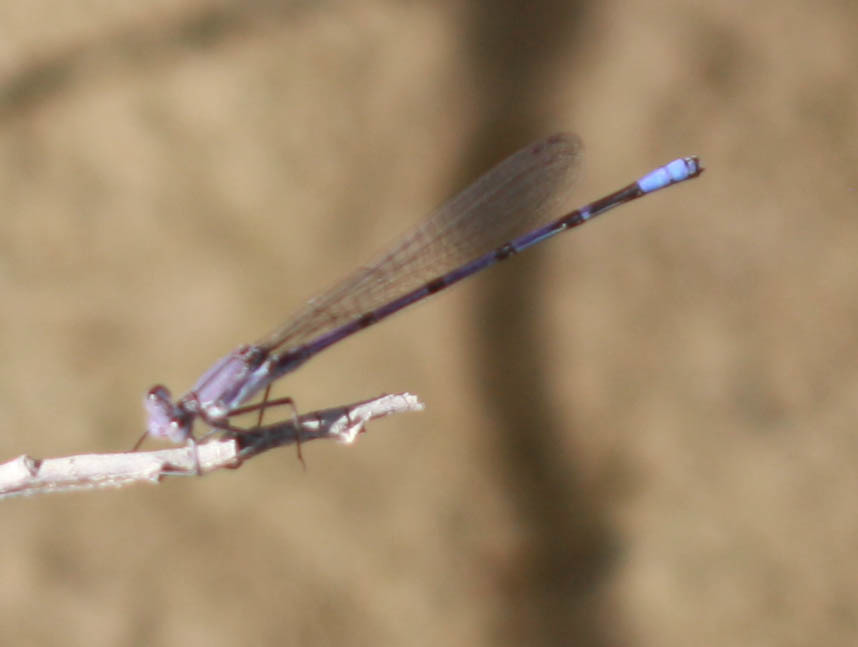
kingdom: Animalia
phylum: Arthropoda
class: Insecta
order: Odonata
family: Coenagrionidae
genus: Argia
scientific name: Argia emma
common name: Emma's dancer
